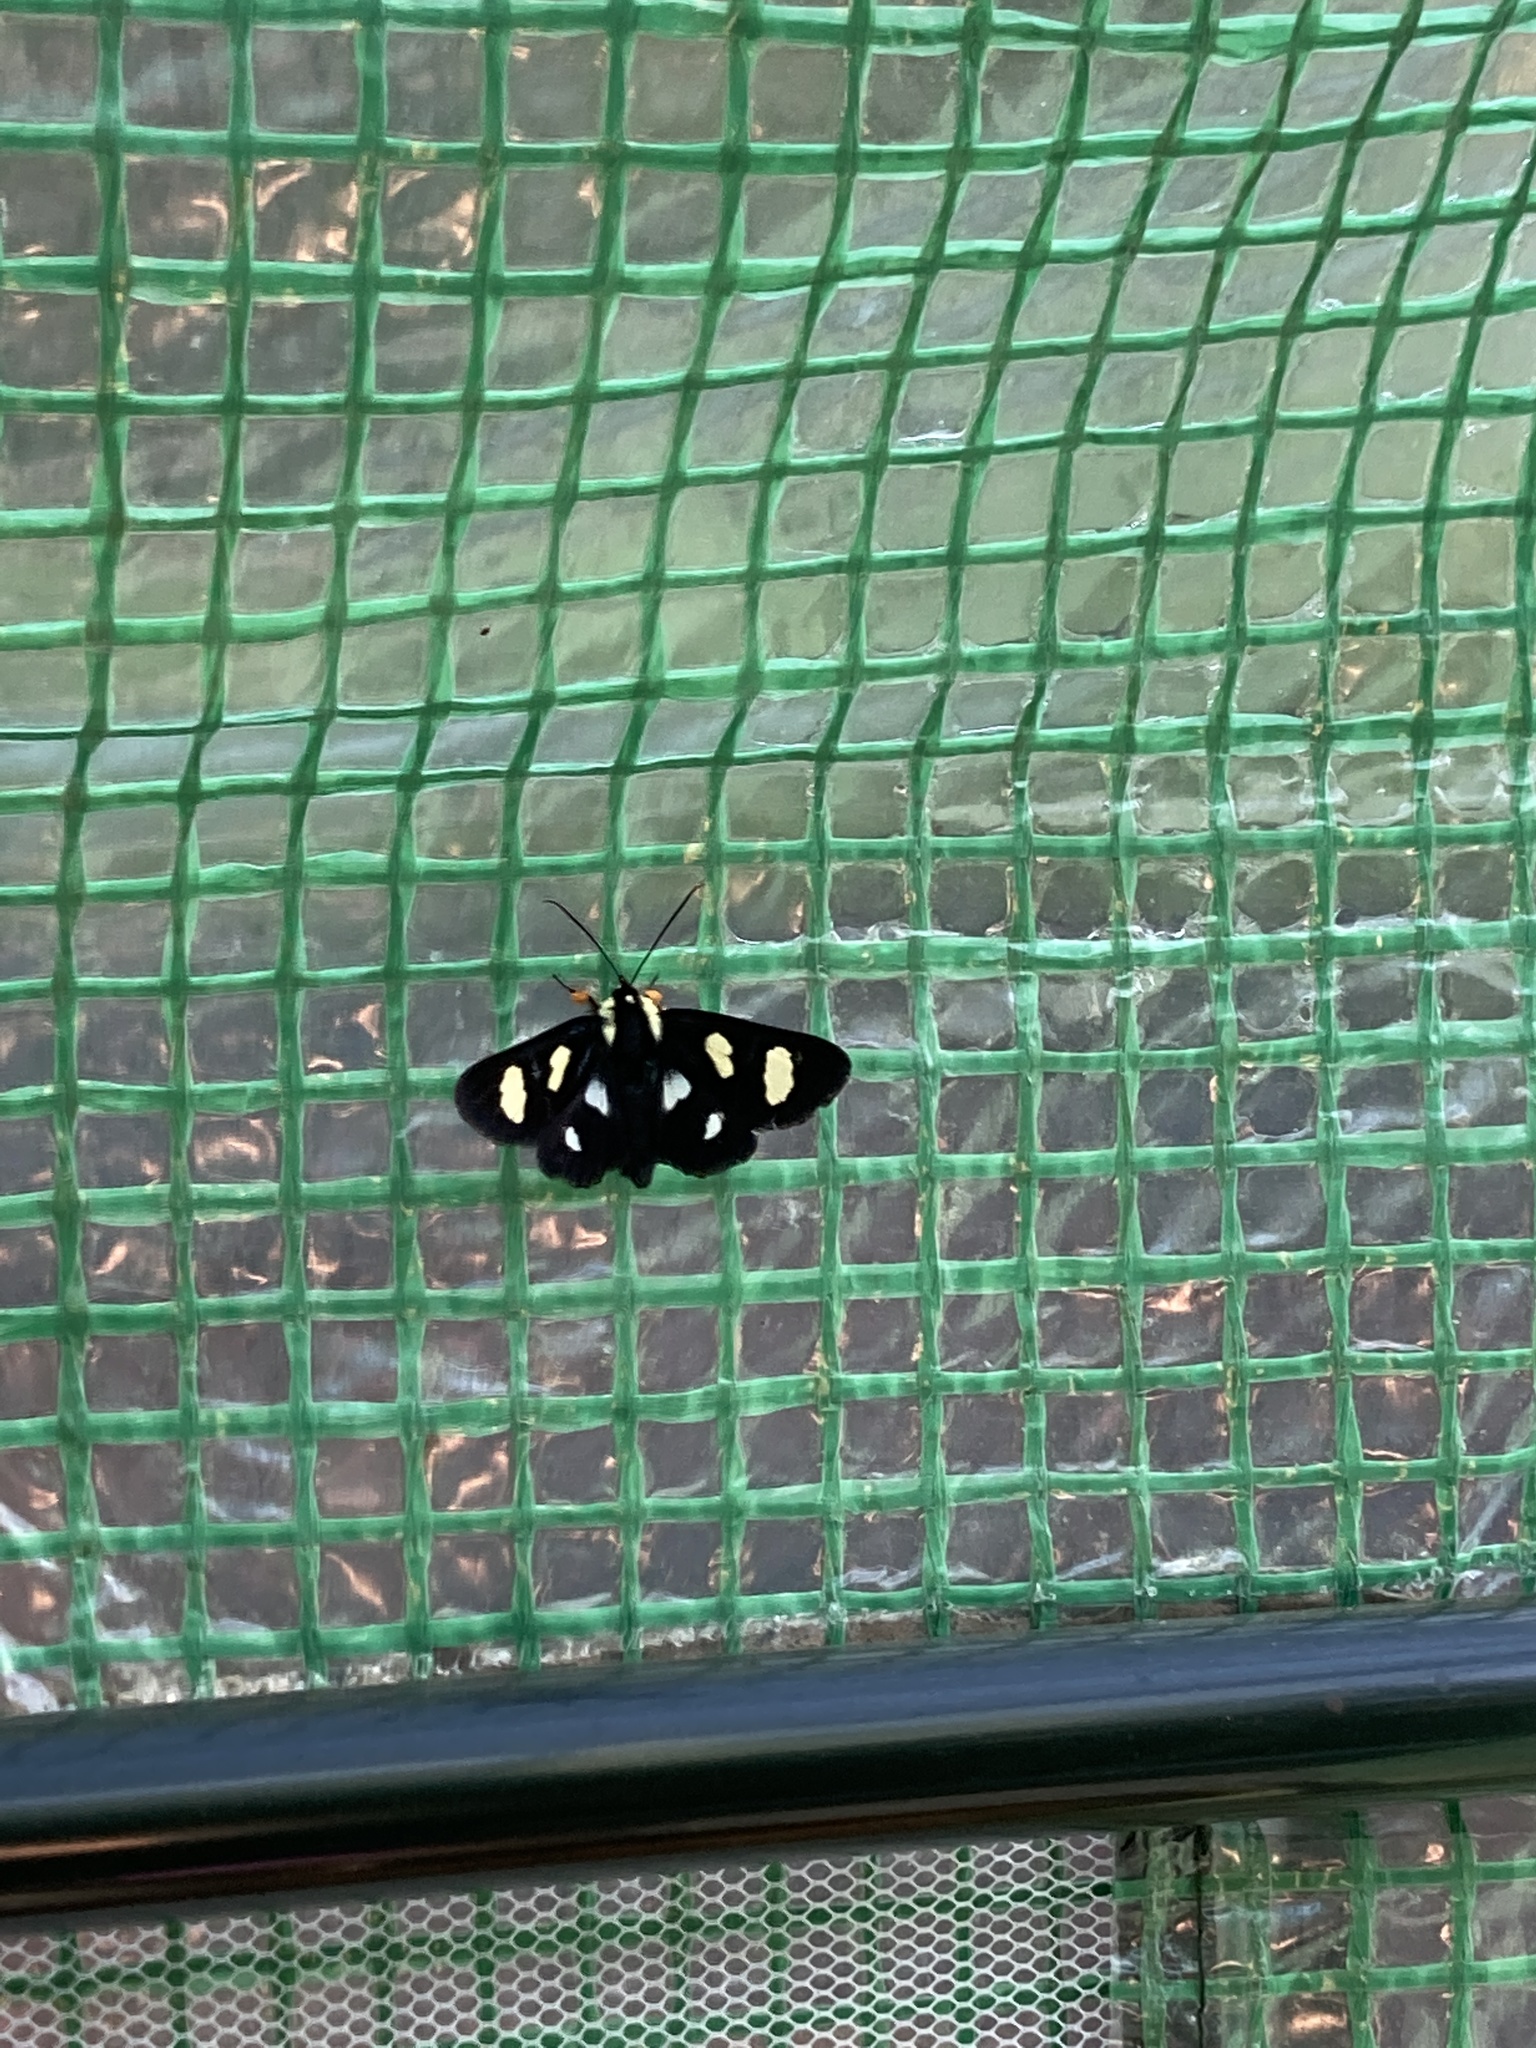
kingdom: Animalia
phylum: Arthropoda
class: Insecta
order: Lepidoptera
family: Noctuidae
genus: Alypia
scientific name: Alypia octomaculata
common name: Eight-spotted forester
